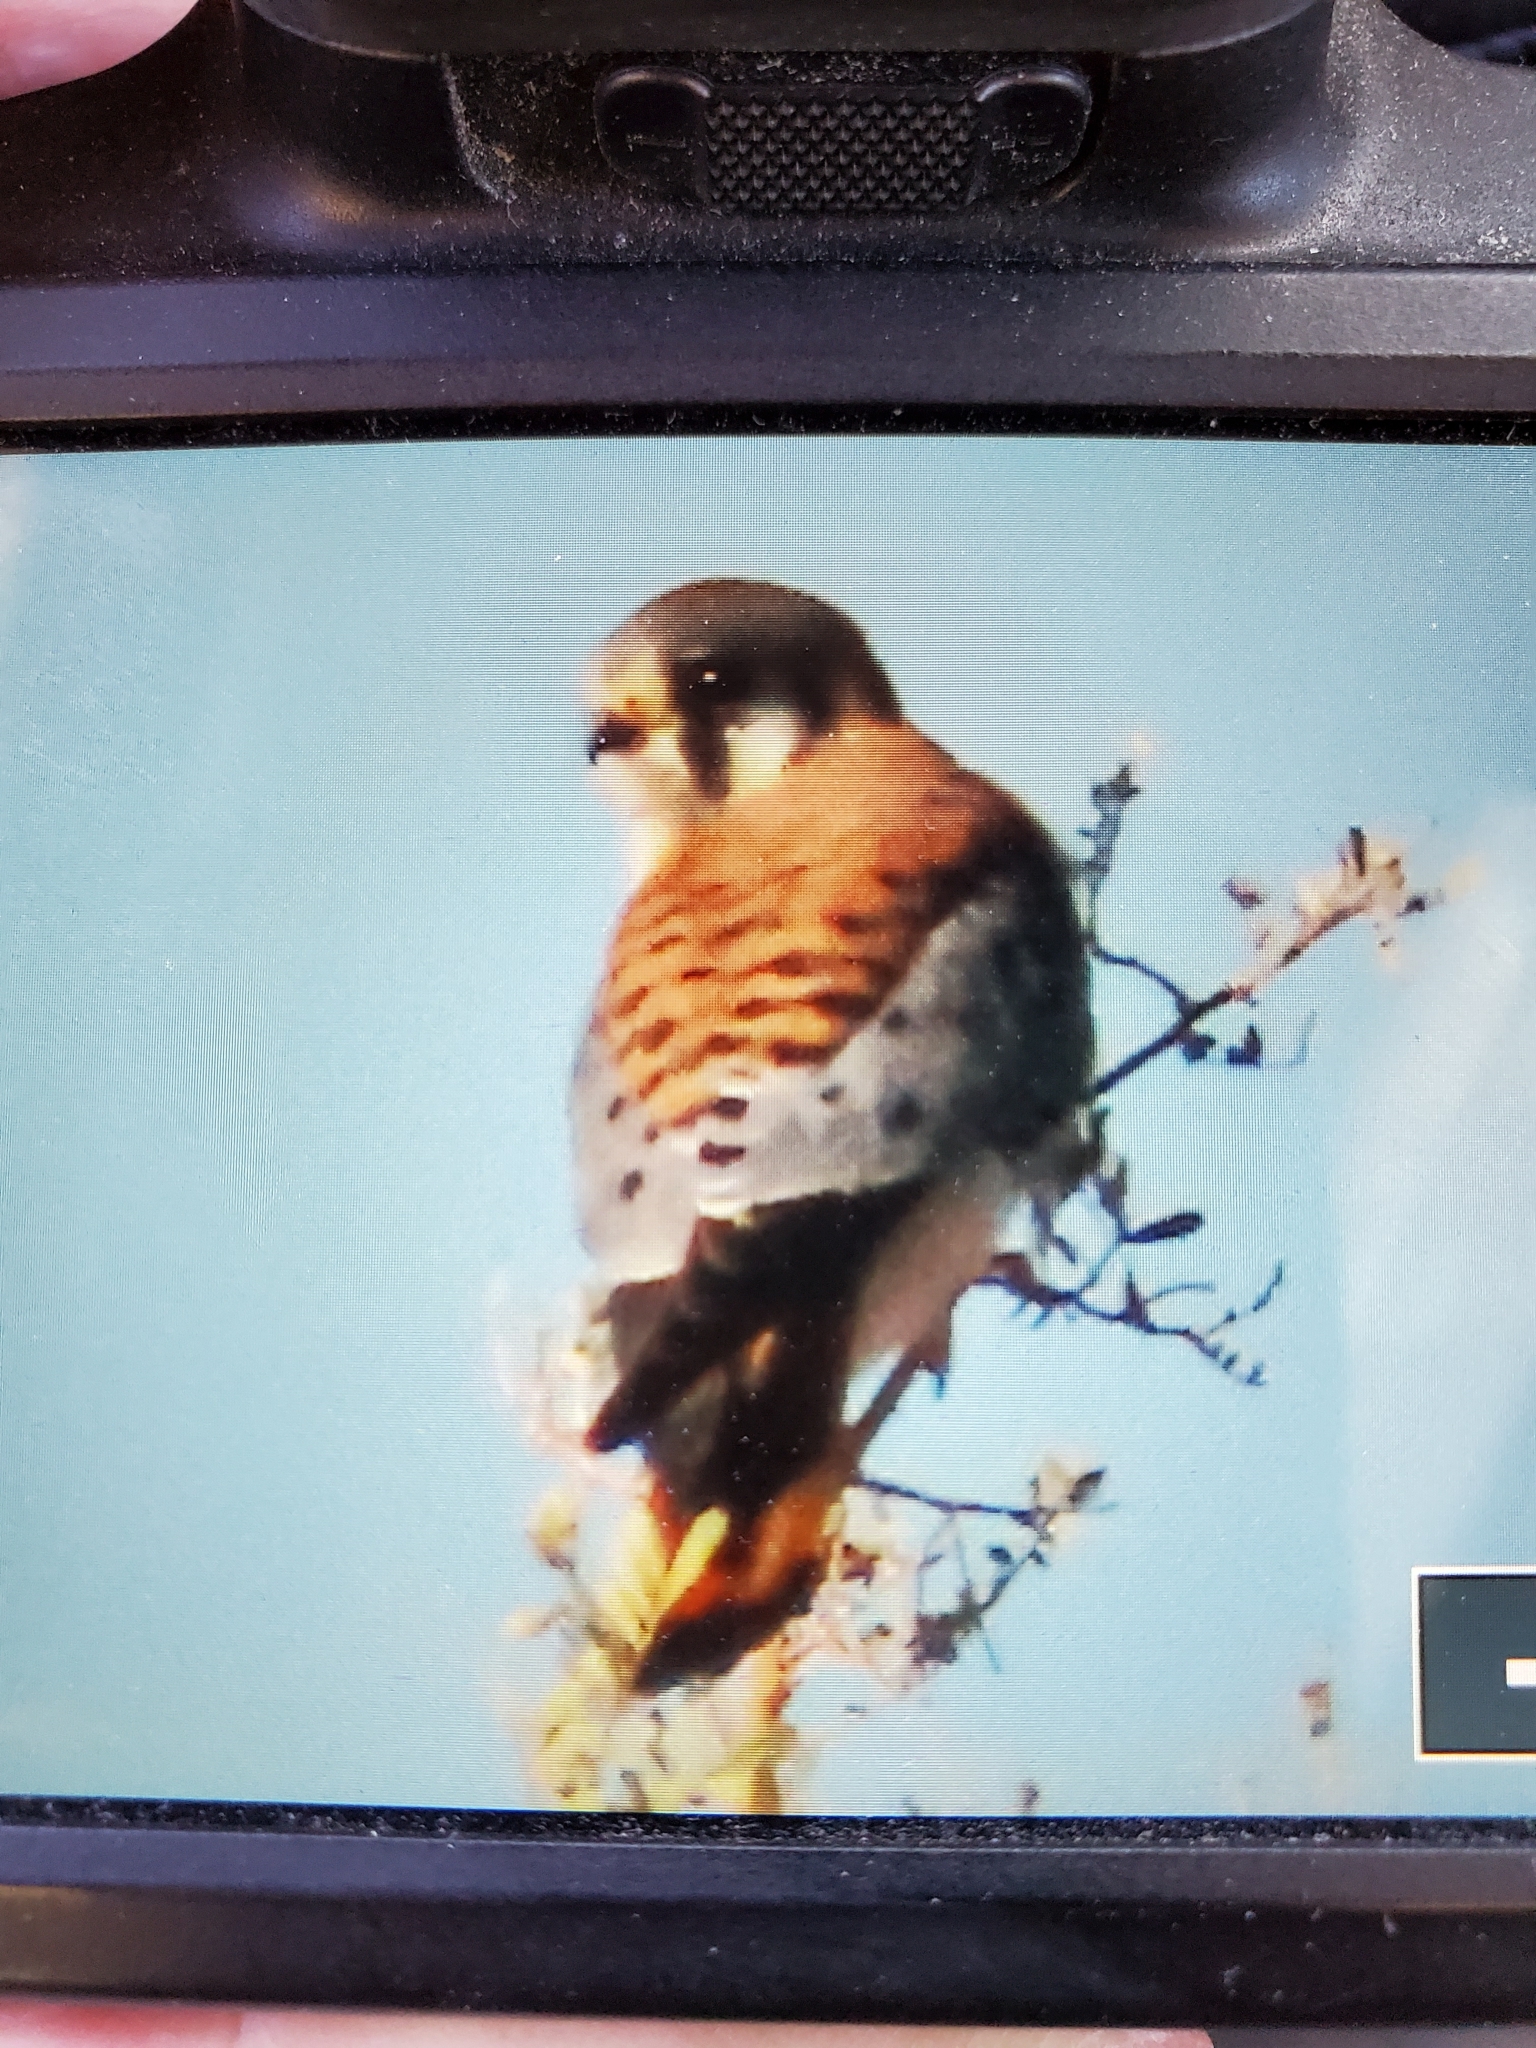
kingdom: Animalia
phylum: Chordata
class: Aves
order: Falconiformes
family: Falconidae
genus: Falco
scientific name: Falco sparverius
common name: American kestrel
